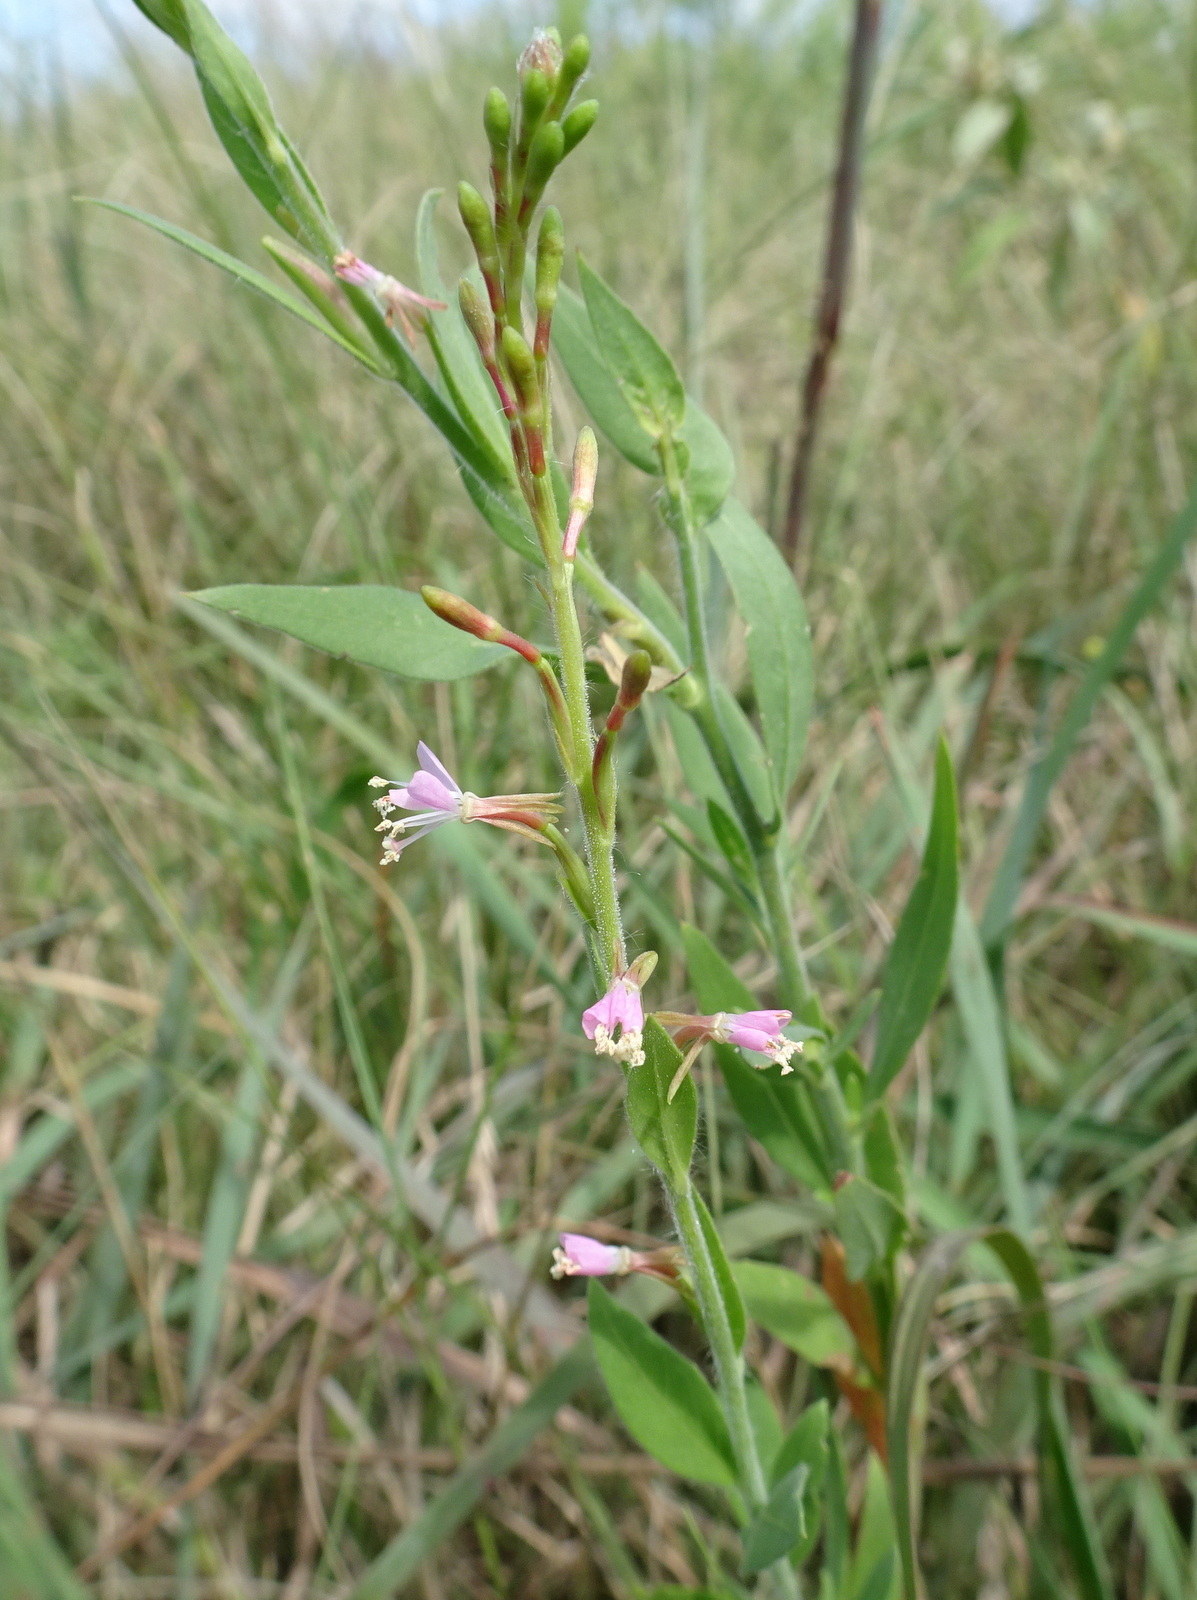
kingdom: Plantae
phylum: Tracheophyta
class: Magnoliopsida
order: Myrtales
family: Onagraceae
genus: Oenothera
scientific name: Oenothera curtiflora
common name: Velvetweed
